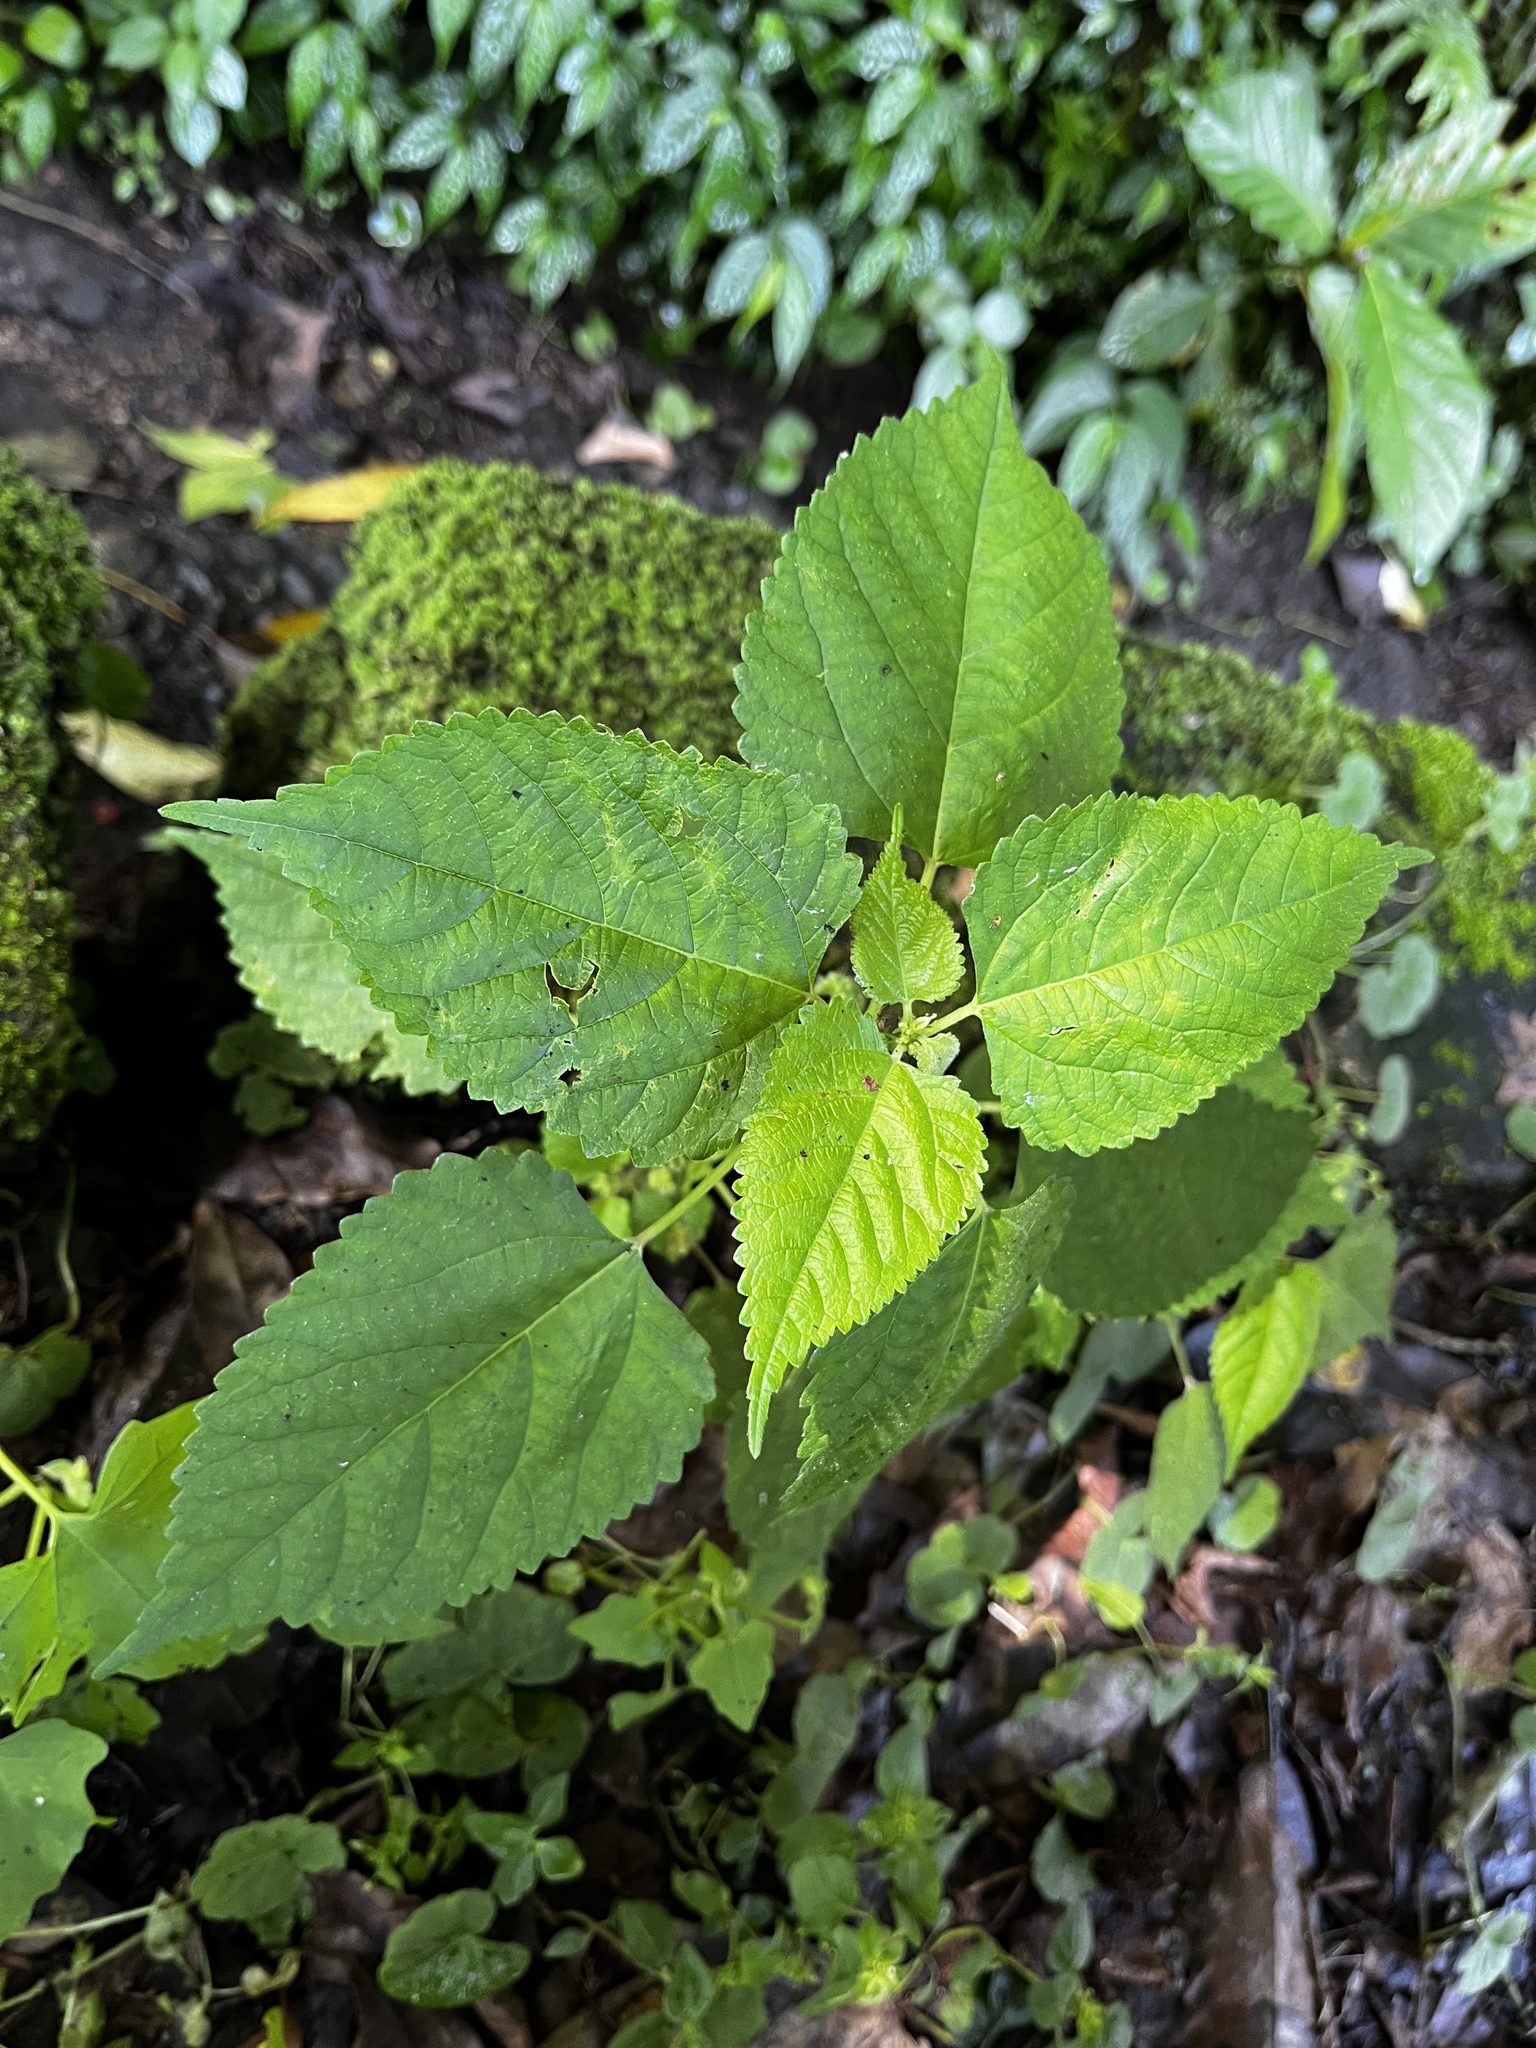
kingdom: Plantae
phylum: Tracheophyta
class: Magnoliopsida
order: Rosales
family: Moraceae
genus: Fatoua
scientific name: Fatoua villosa
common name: Hairy crabweed
